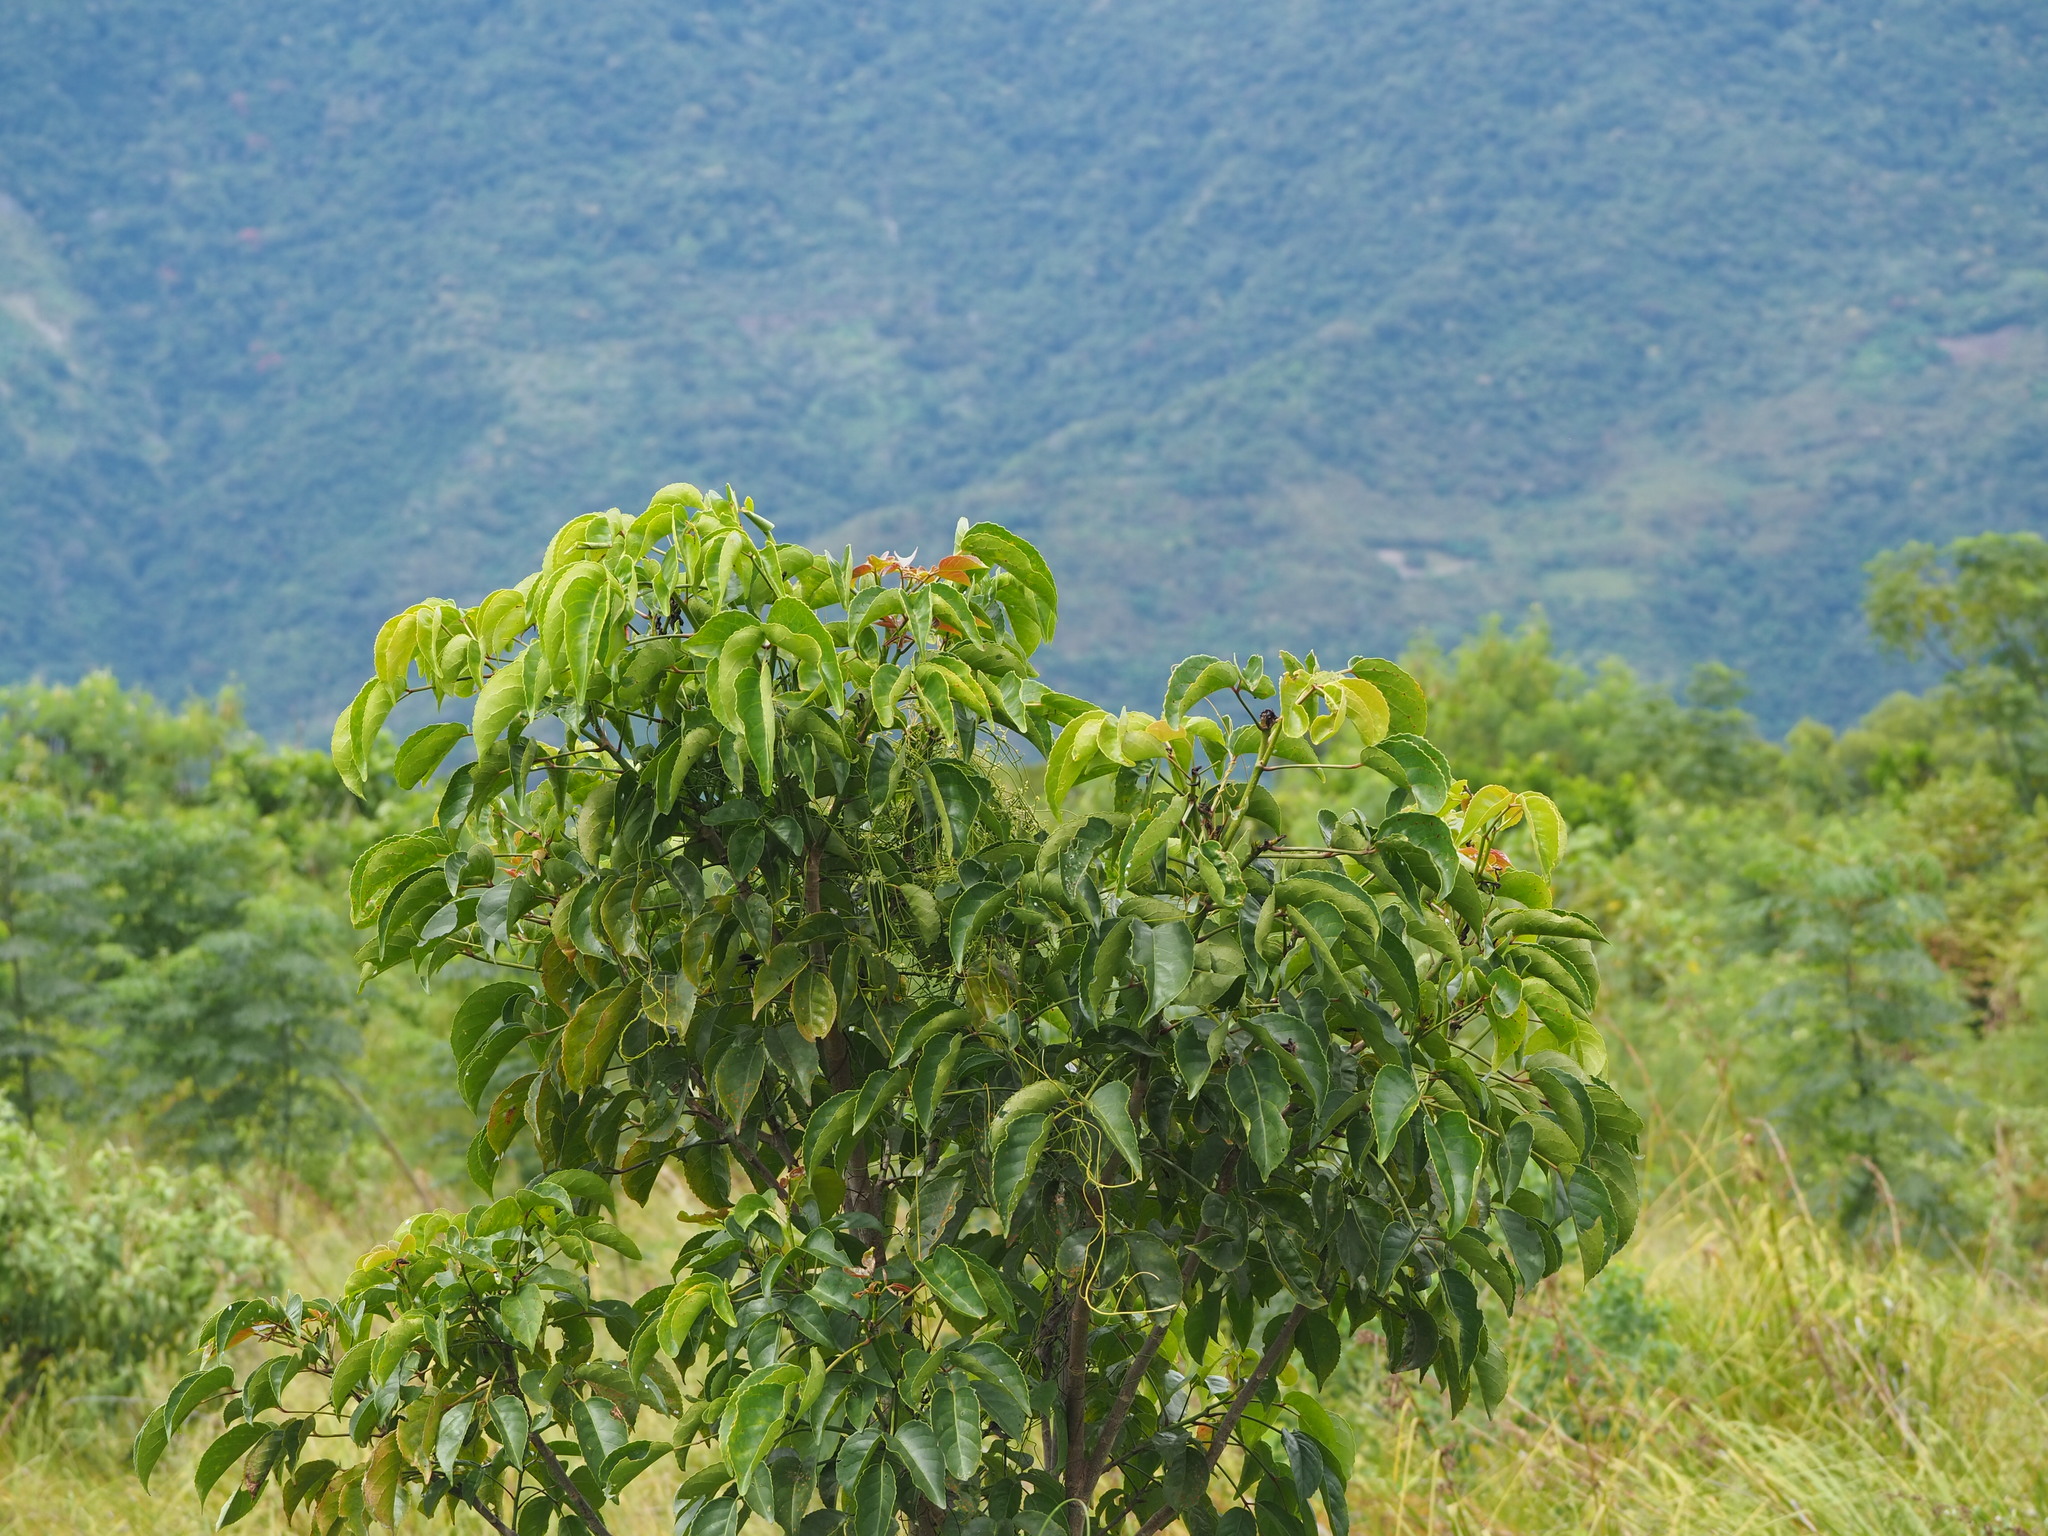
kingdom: Plantae
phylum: Tracheophyta
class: Magnoliopsida
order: Malpighiales
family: Phyllanthaceae
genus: Bischofia
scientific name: Bischofia javanica
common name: Javanese bishopwood
